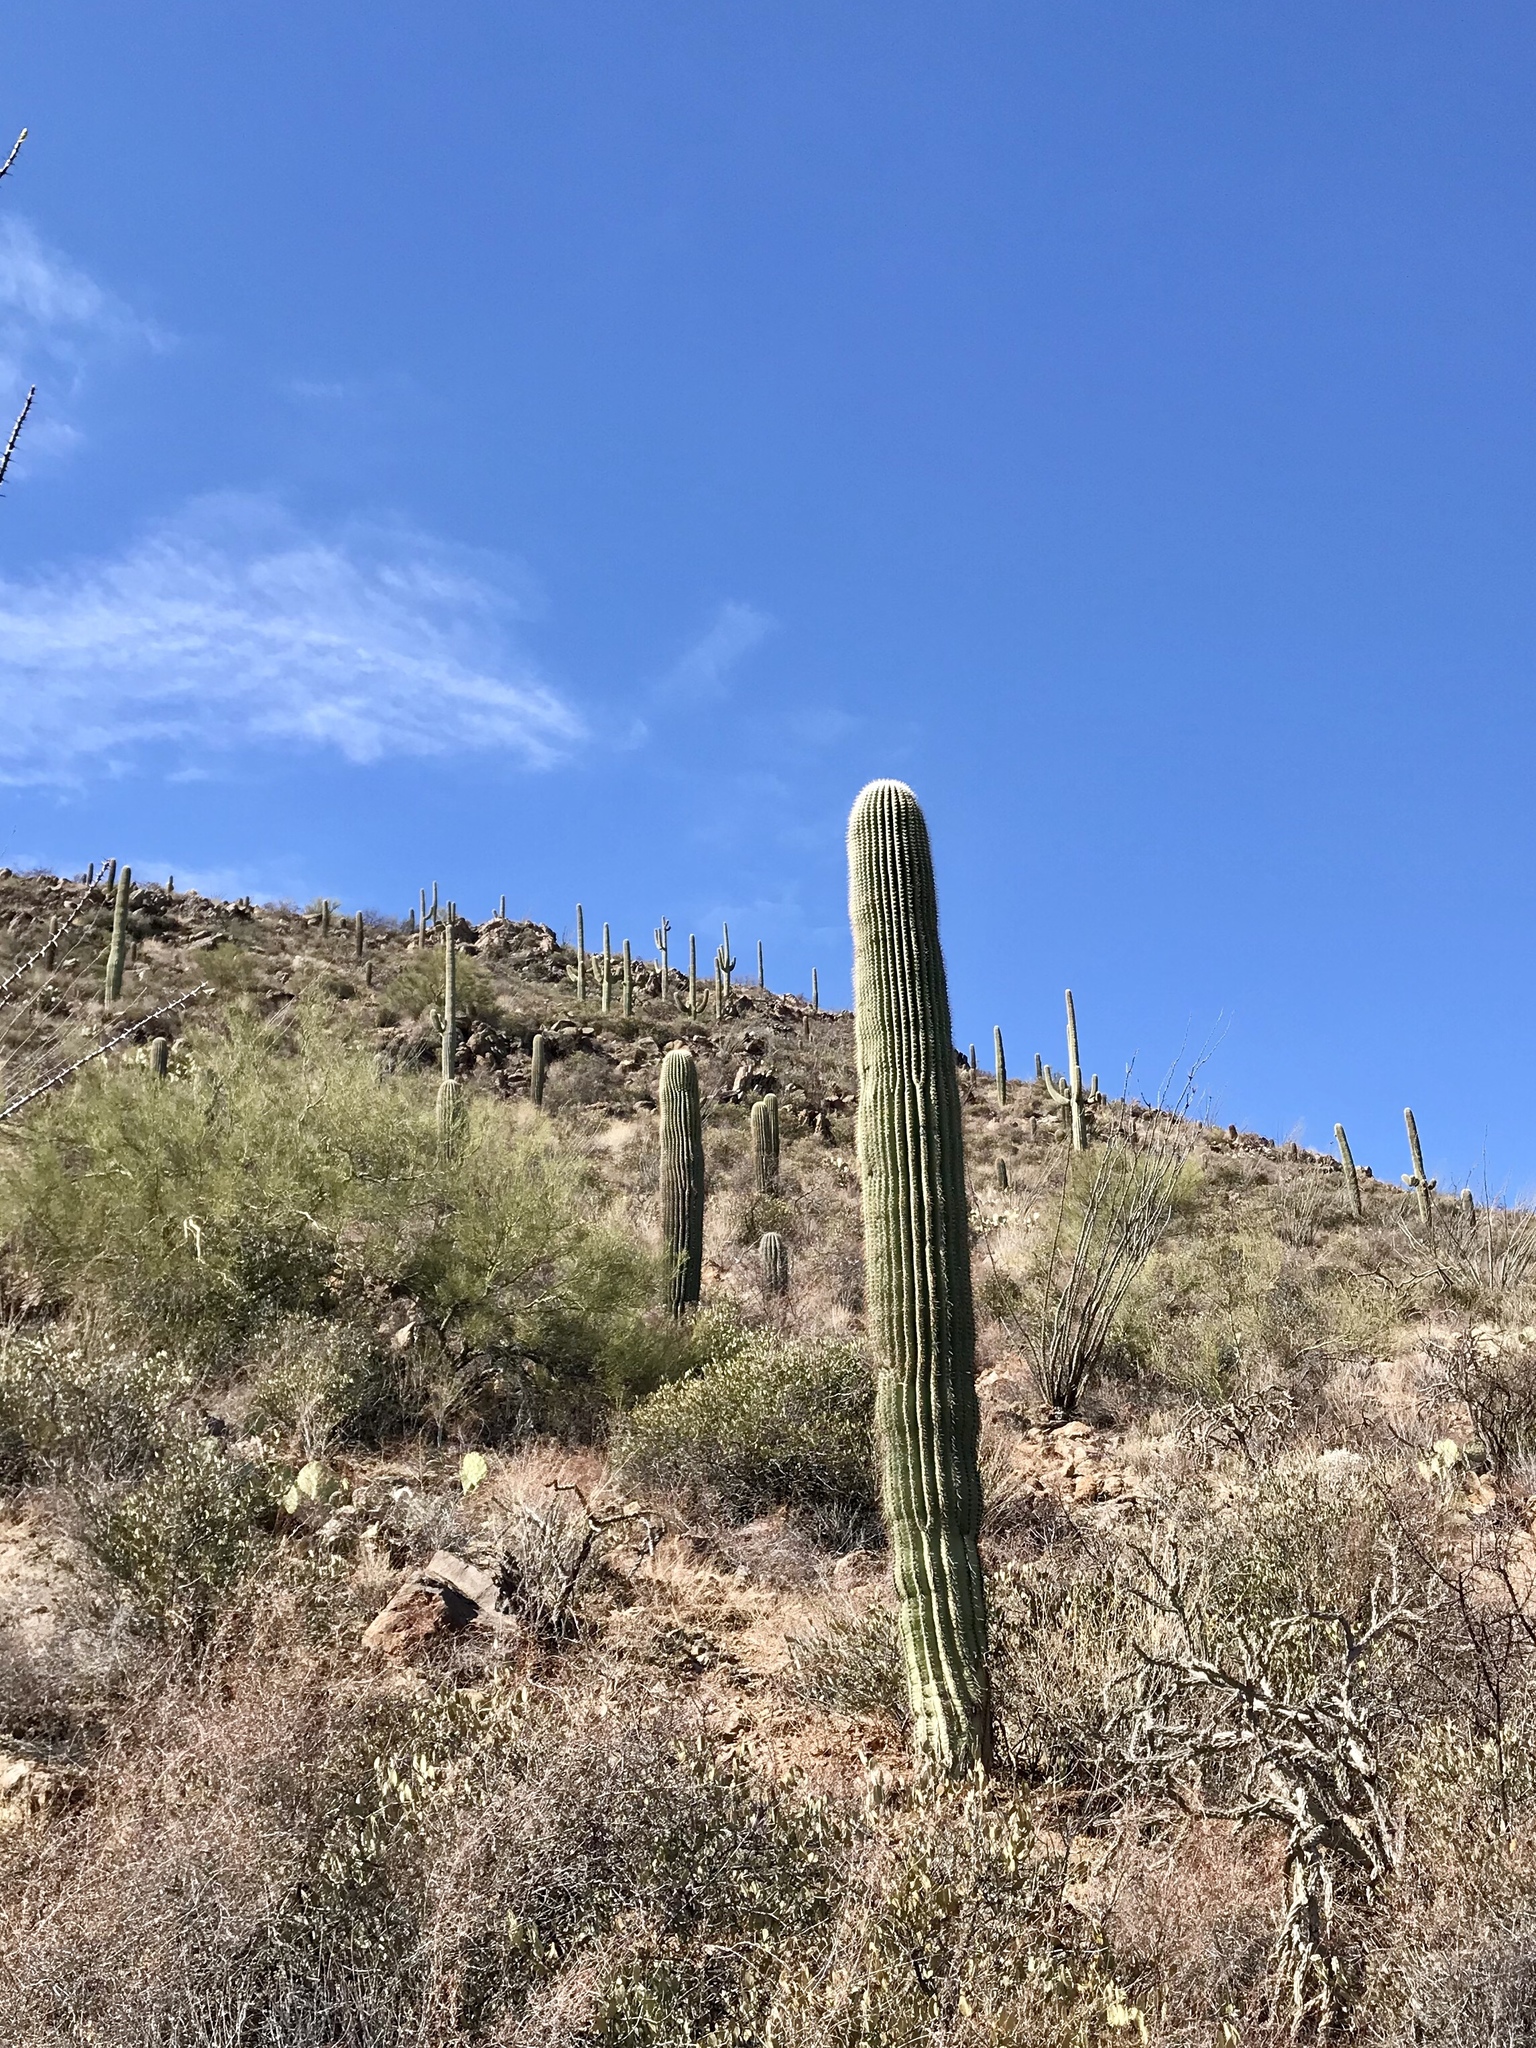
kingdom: Plantae
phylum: Tracheophyta
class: Magnoliopsida
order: Caryophyllales
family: Cactaceae
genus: Carnegiea
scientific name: Carnegiea gigantea
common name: Saguaro
